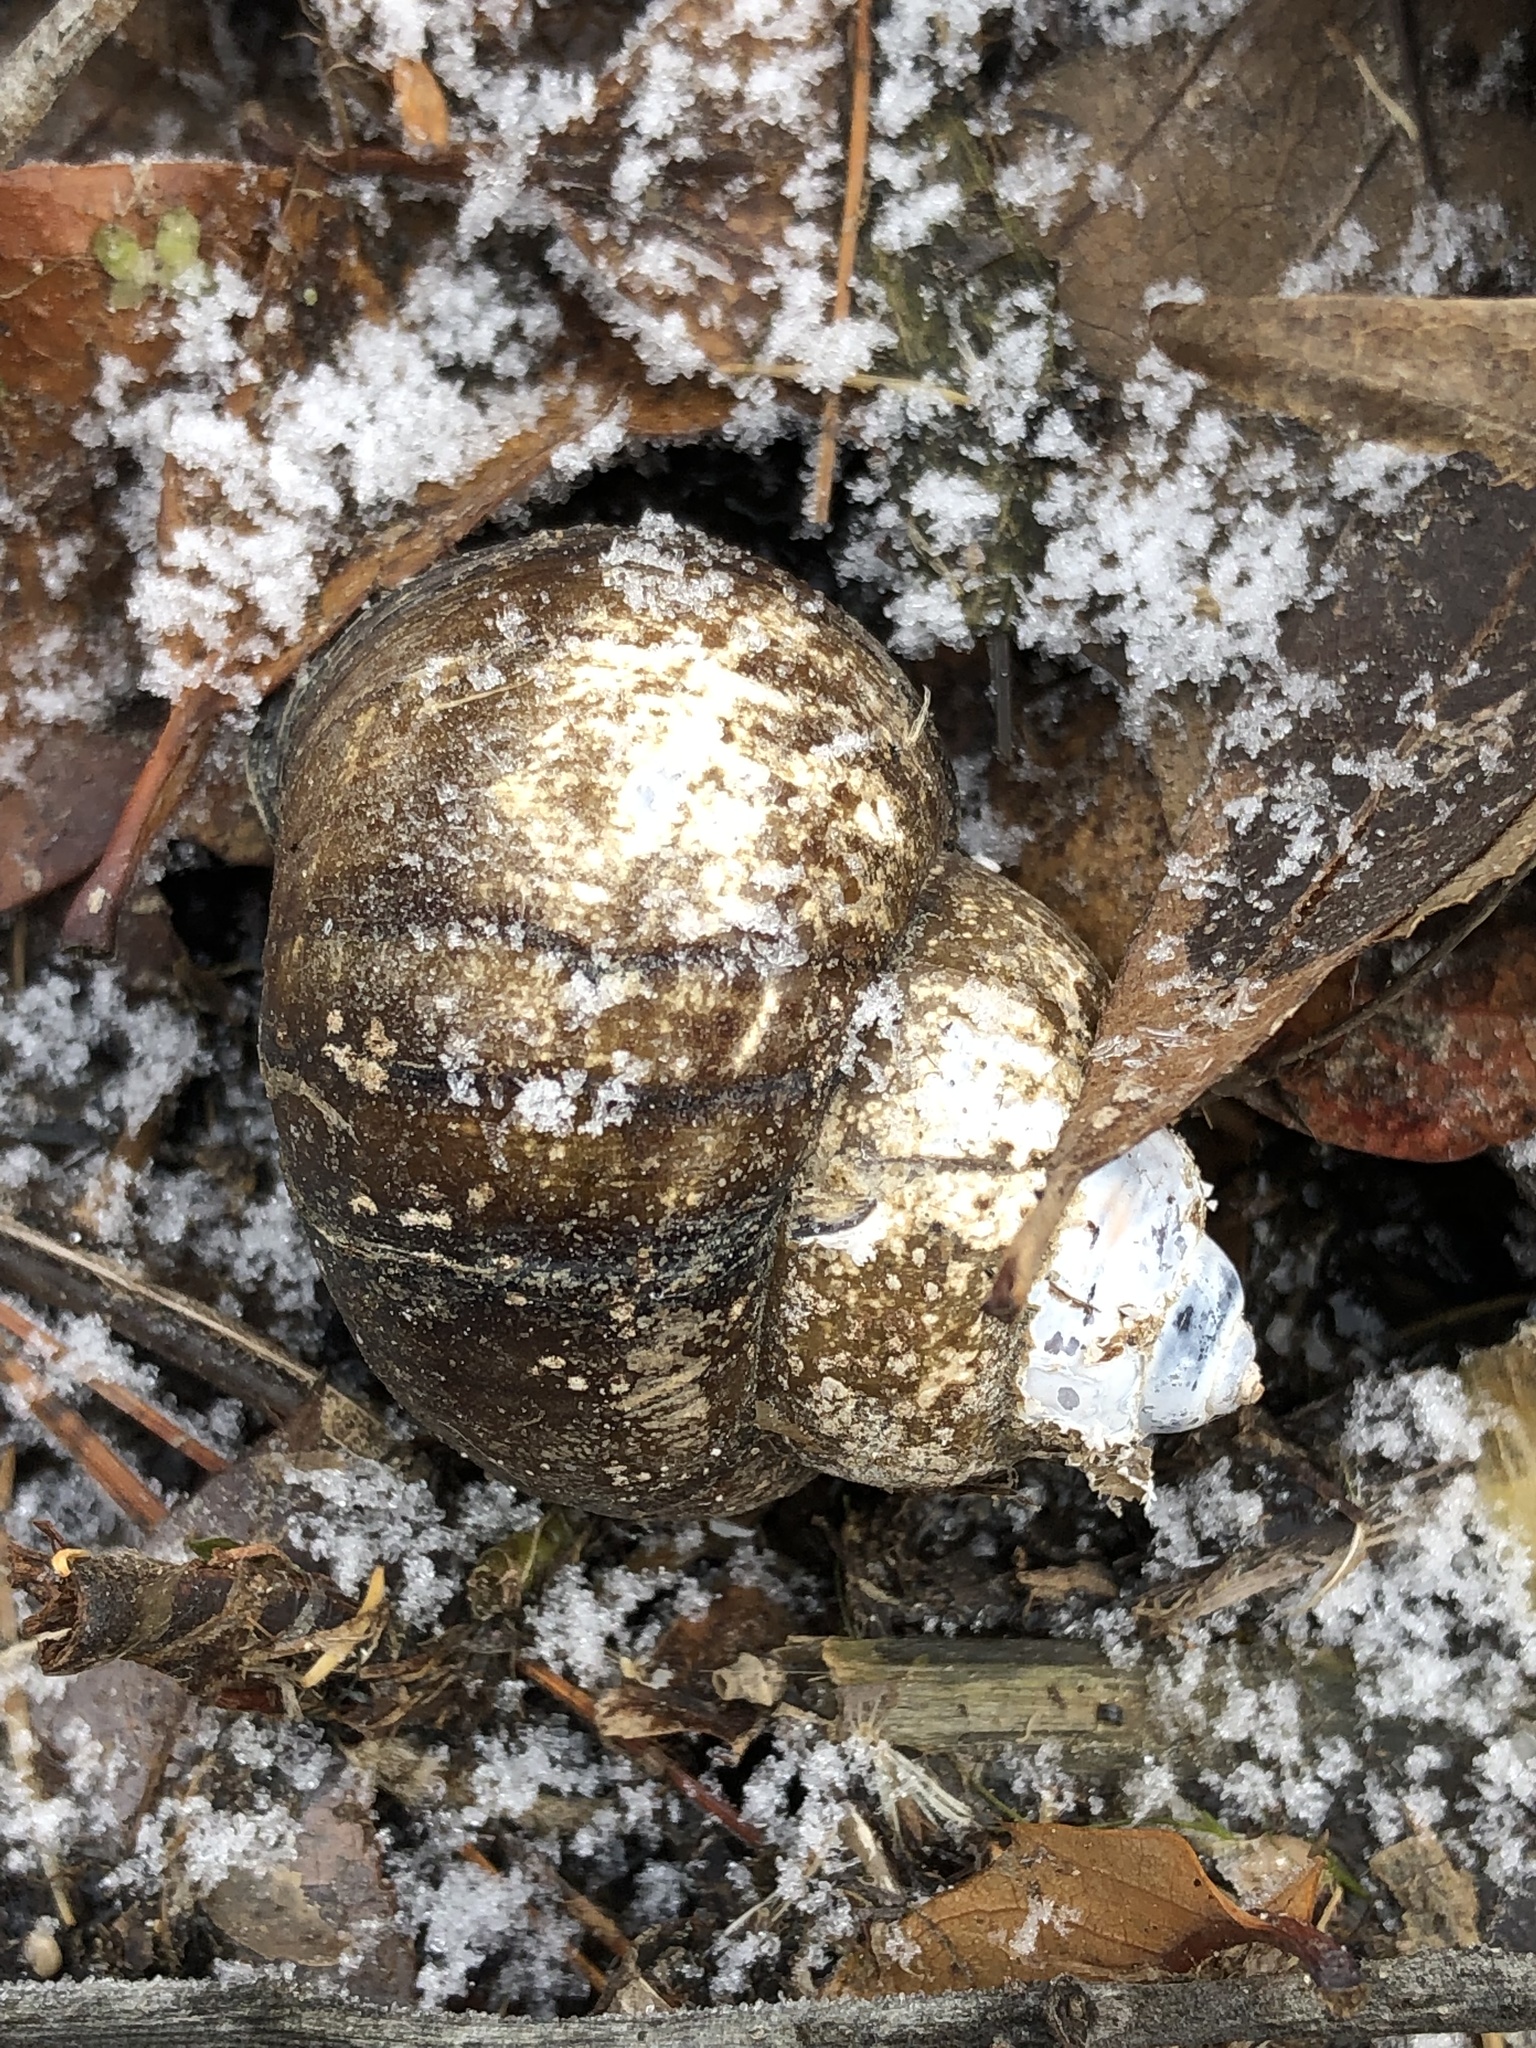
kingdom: Animalia
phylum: Mollusca
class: Gastropoda
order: Architaenioglossa
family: Viviparidae
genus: Cipangopaludina
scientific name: Cipangopaludina chinensis
